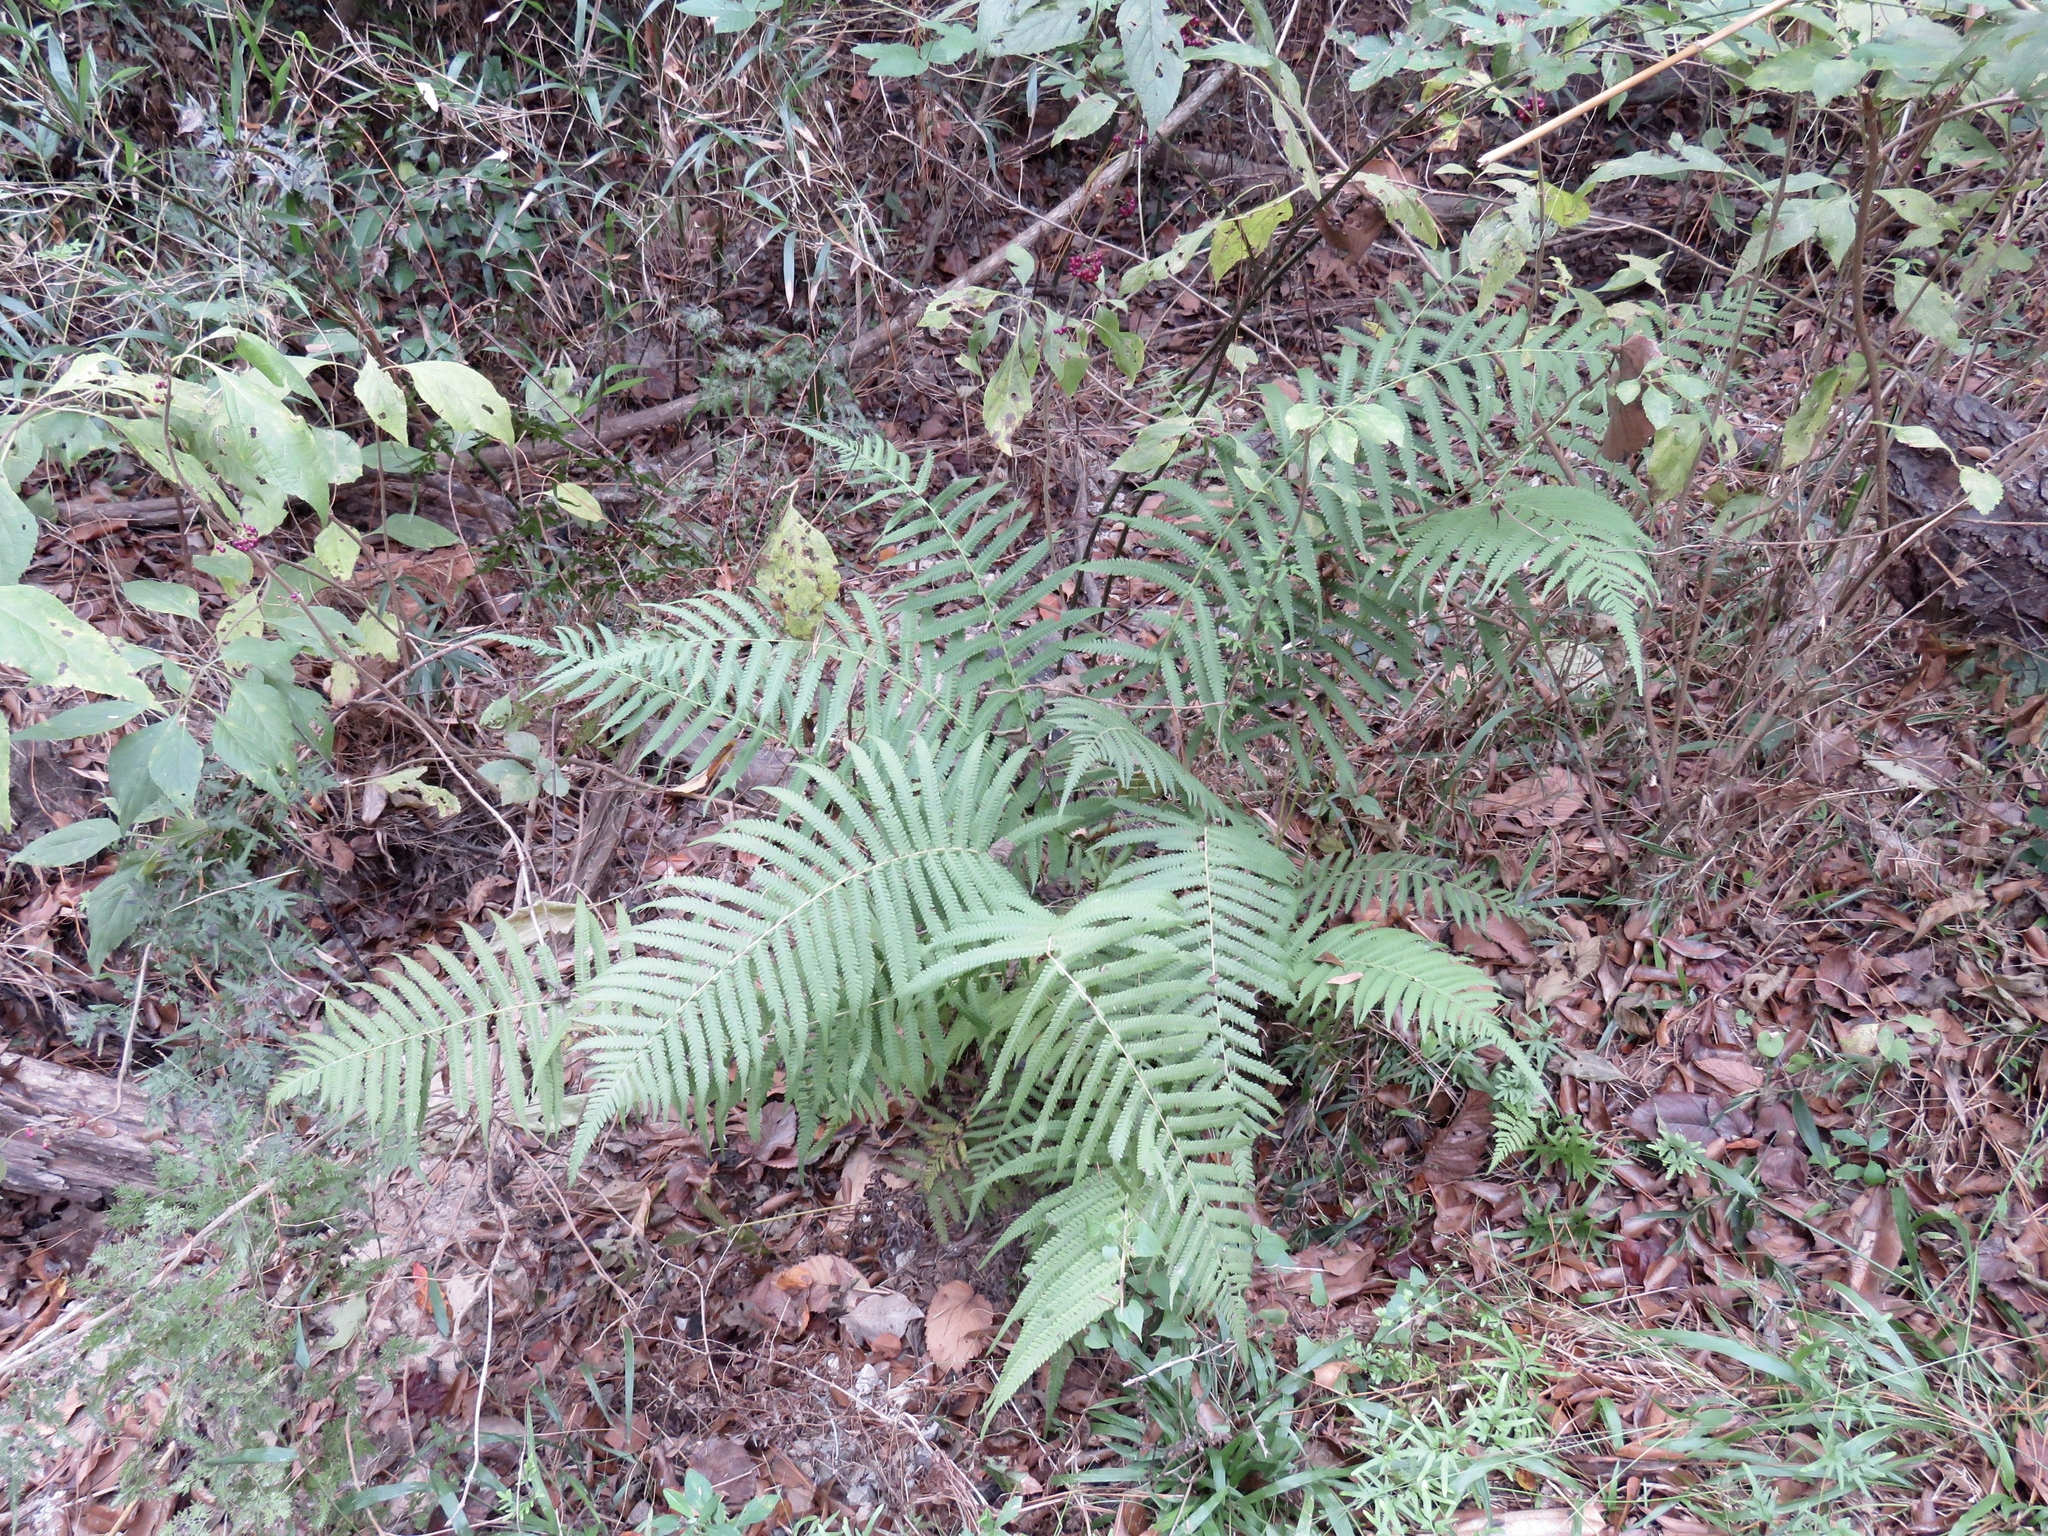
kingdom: Plantae
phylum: Tracheophyta
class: Polypodiopsida
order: Polypodiales
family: Thelypteridaceae
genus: Pelazoneuron
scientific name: Pelazoneuron kunthii
